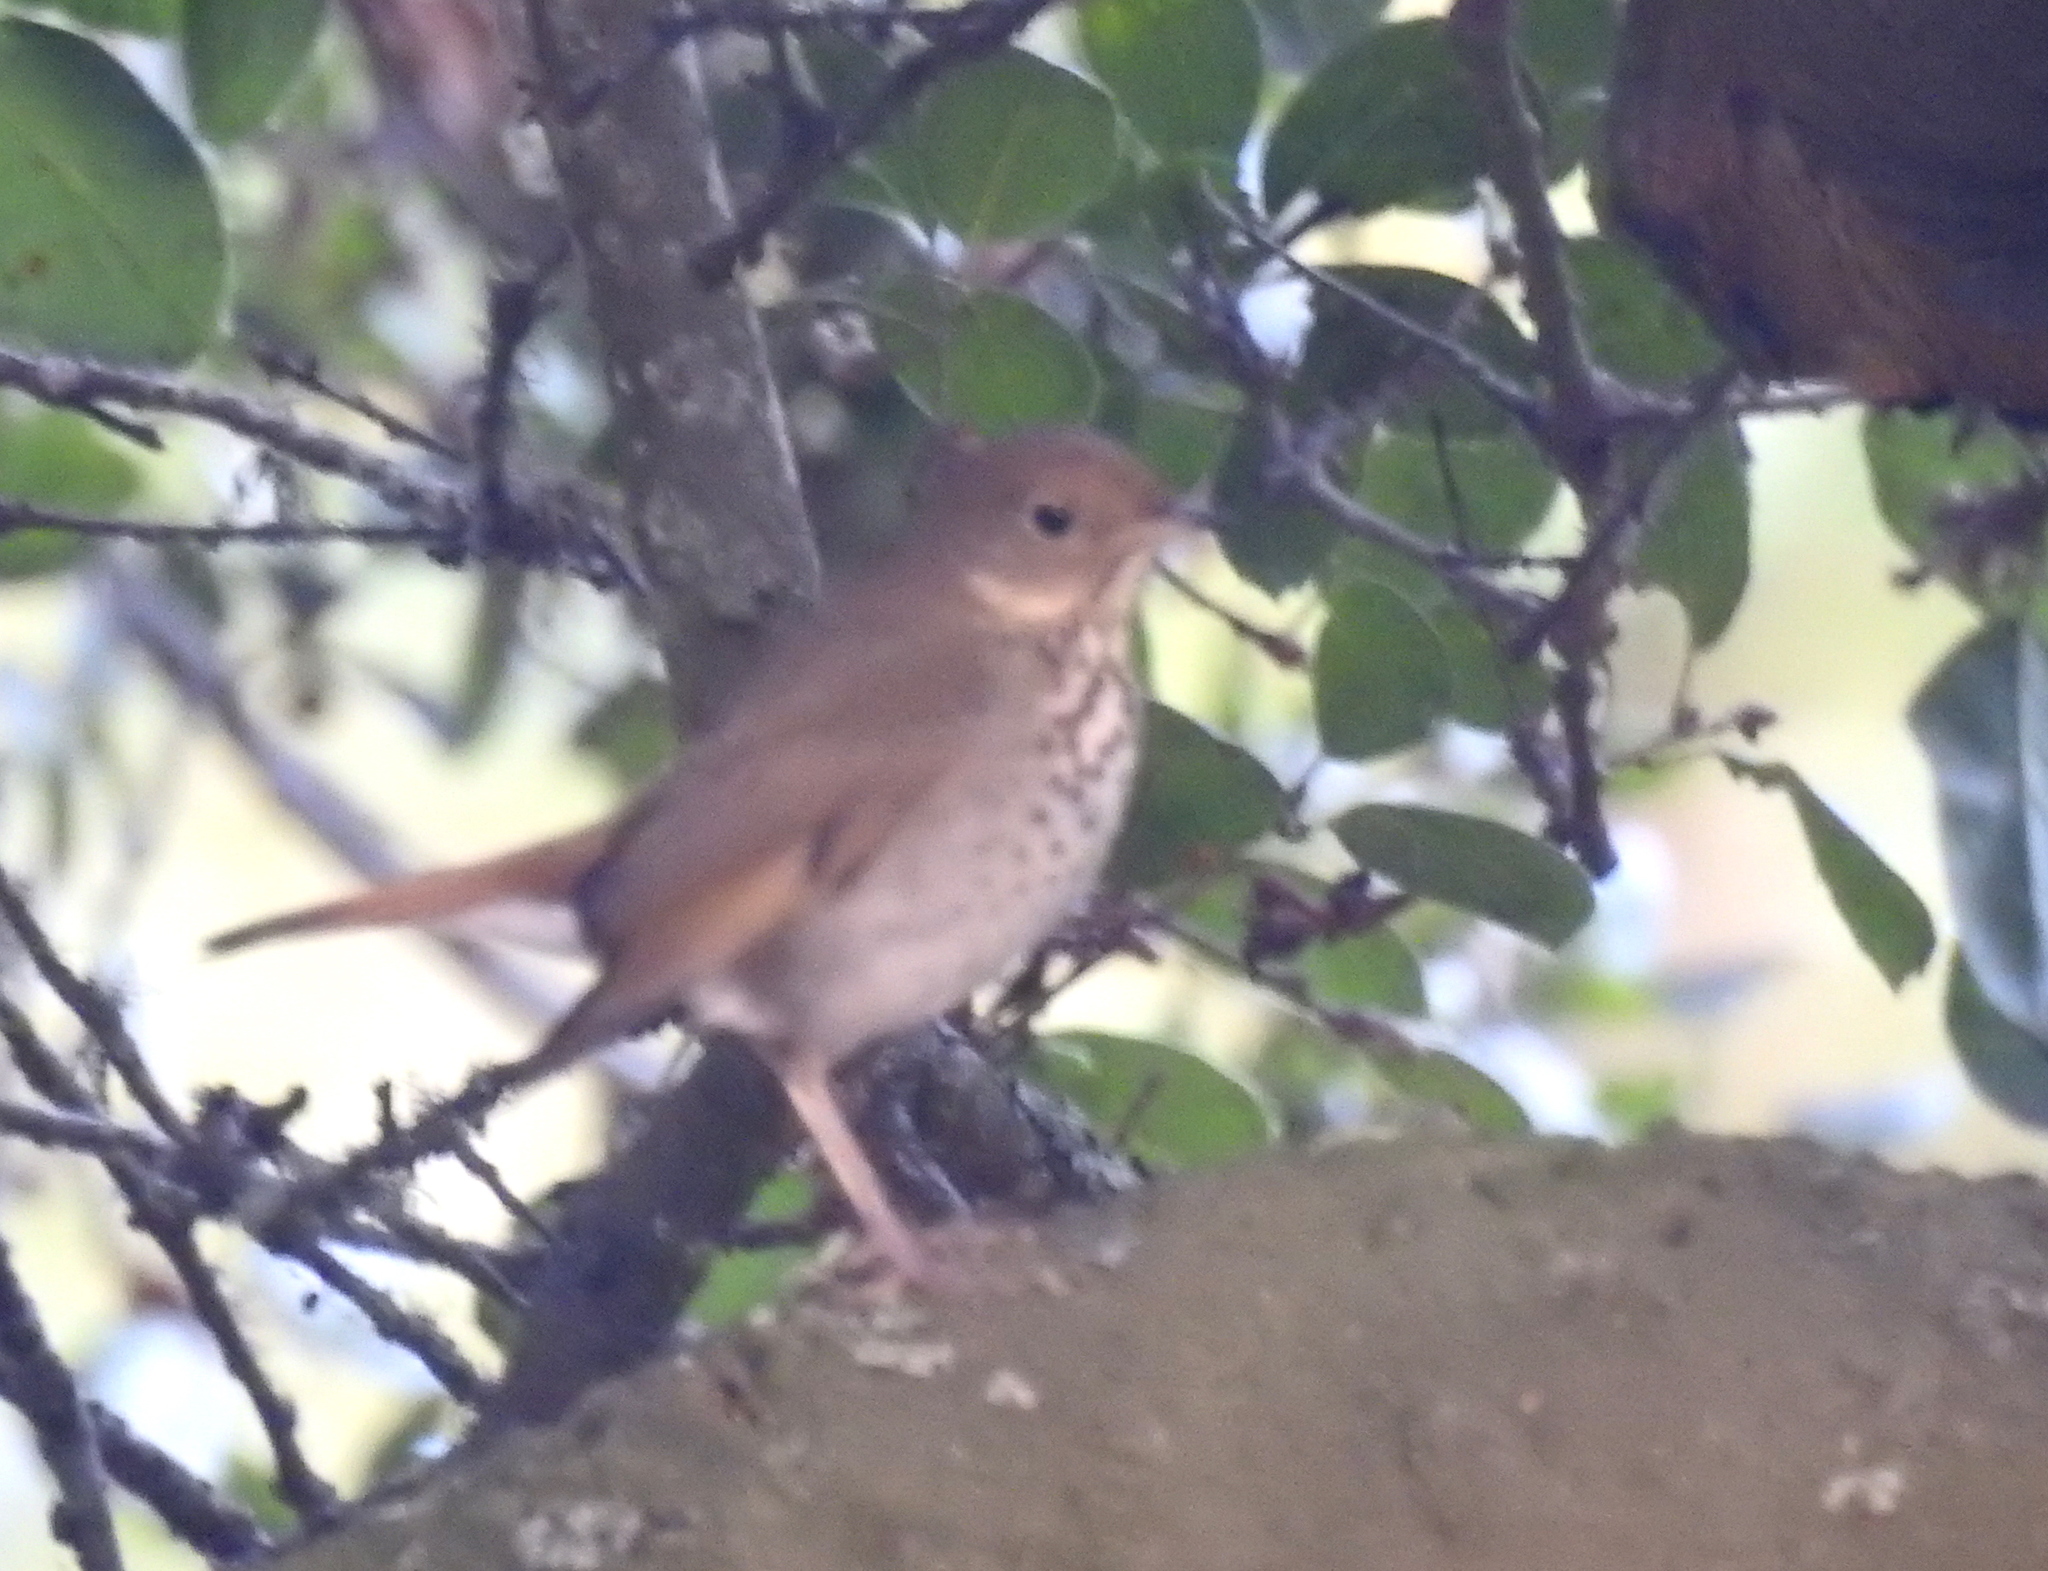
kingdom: Animalia
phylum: Chordata
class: Aves
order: Passeriformes
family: Turdidae
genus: Catharus
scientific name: Catharus guttatus
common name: Hermit thrush
